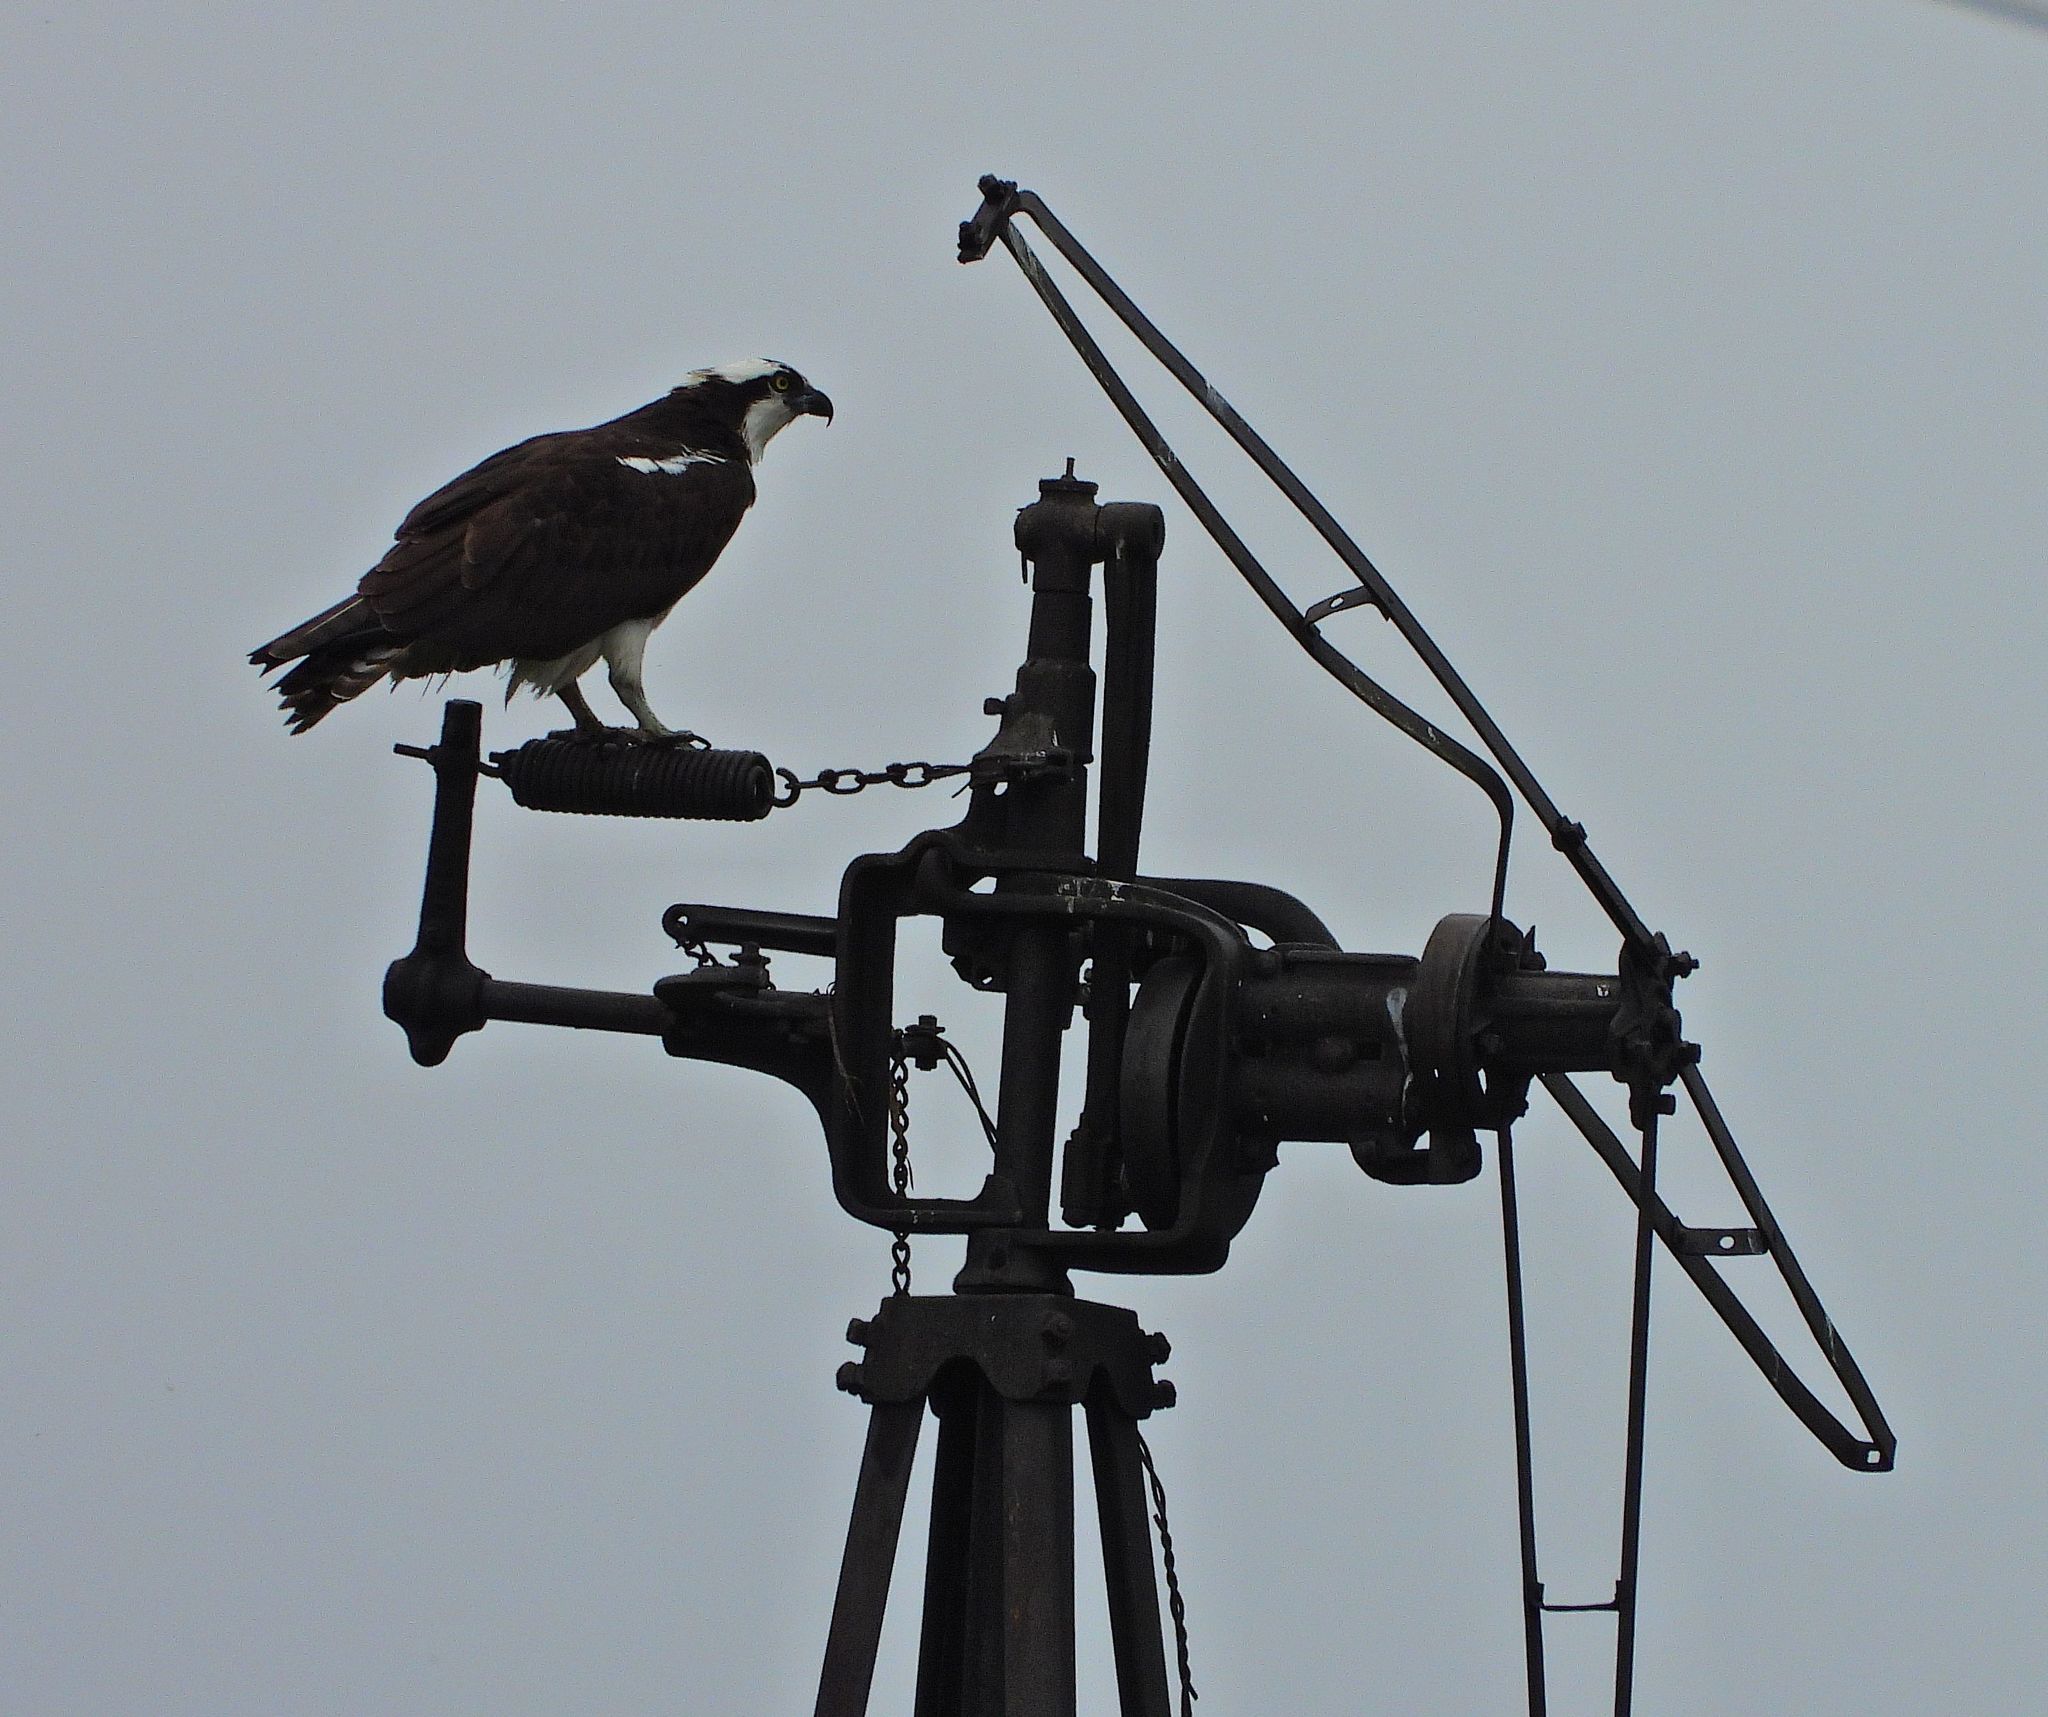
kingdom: Animalia
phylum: Chordata
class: Aves
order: Accipitriformes
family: Pandionidae
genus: Pandion
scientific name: Pandion haliaetus
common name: Osprey
